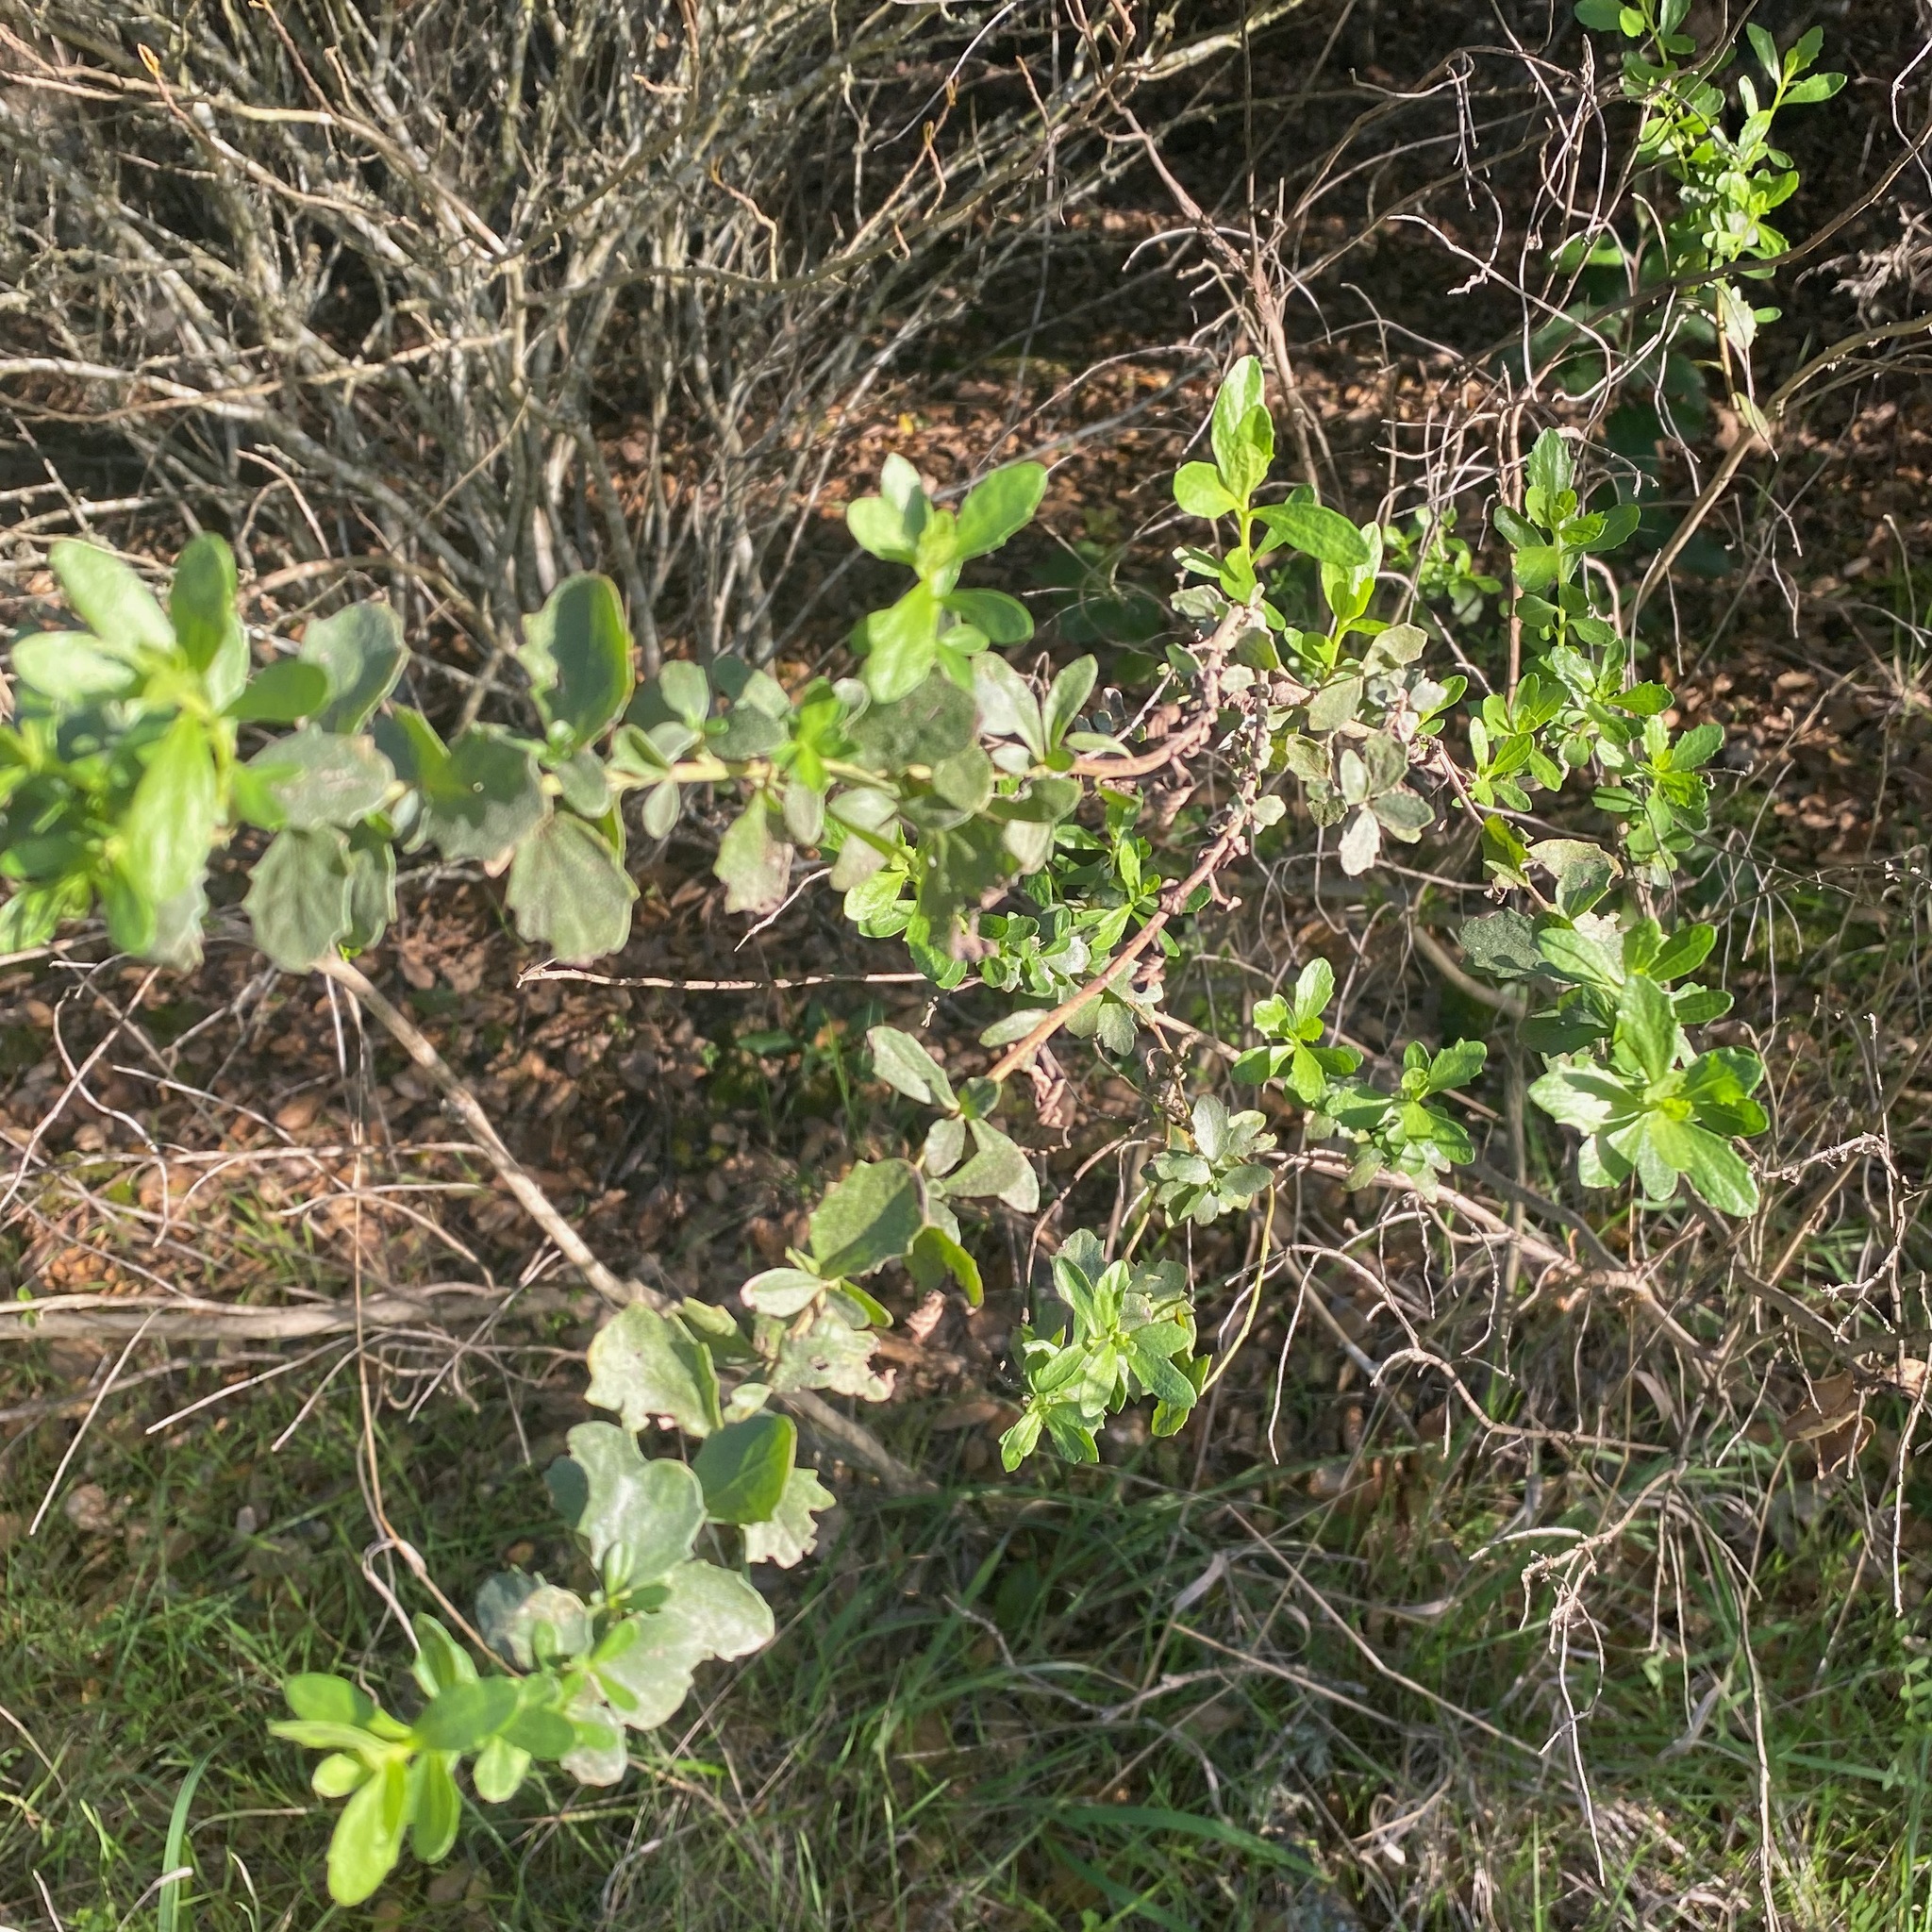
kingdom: Plantae
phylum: Tracheophyta
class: Magnoliopsida
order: Asterales
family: Asteraceae
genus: Baccharis
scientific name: Baccharis pilularis
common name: Coyotebrush
